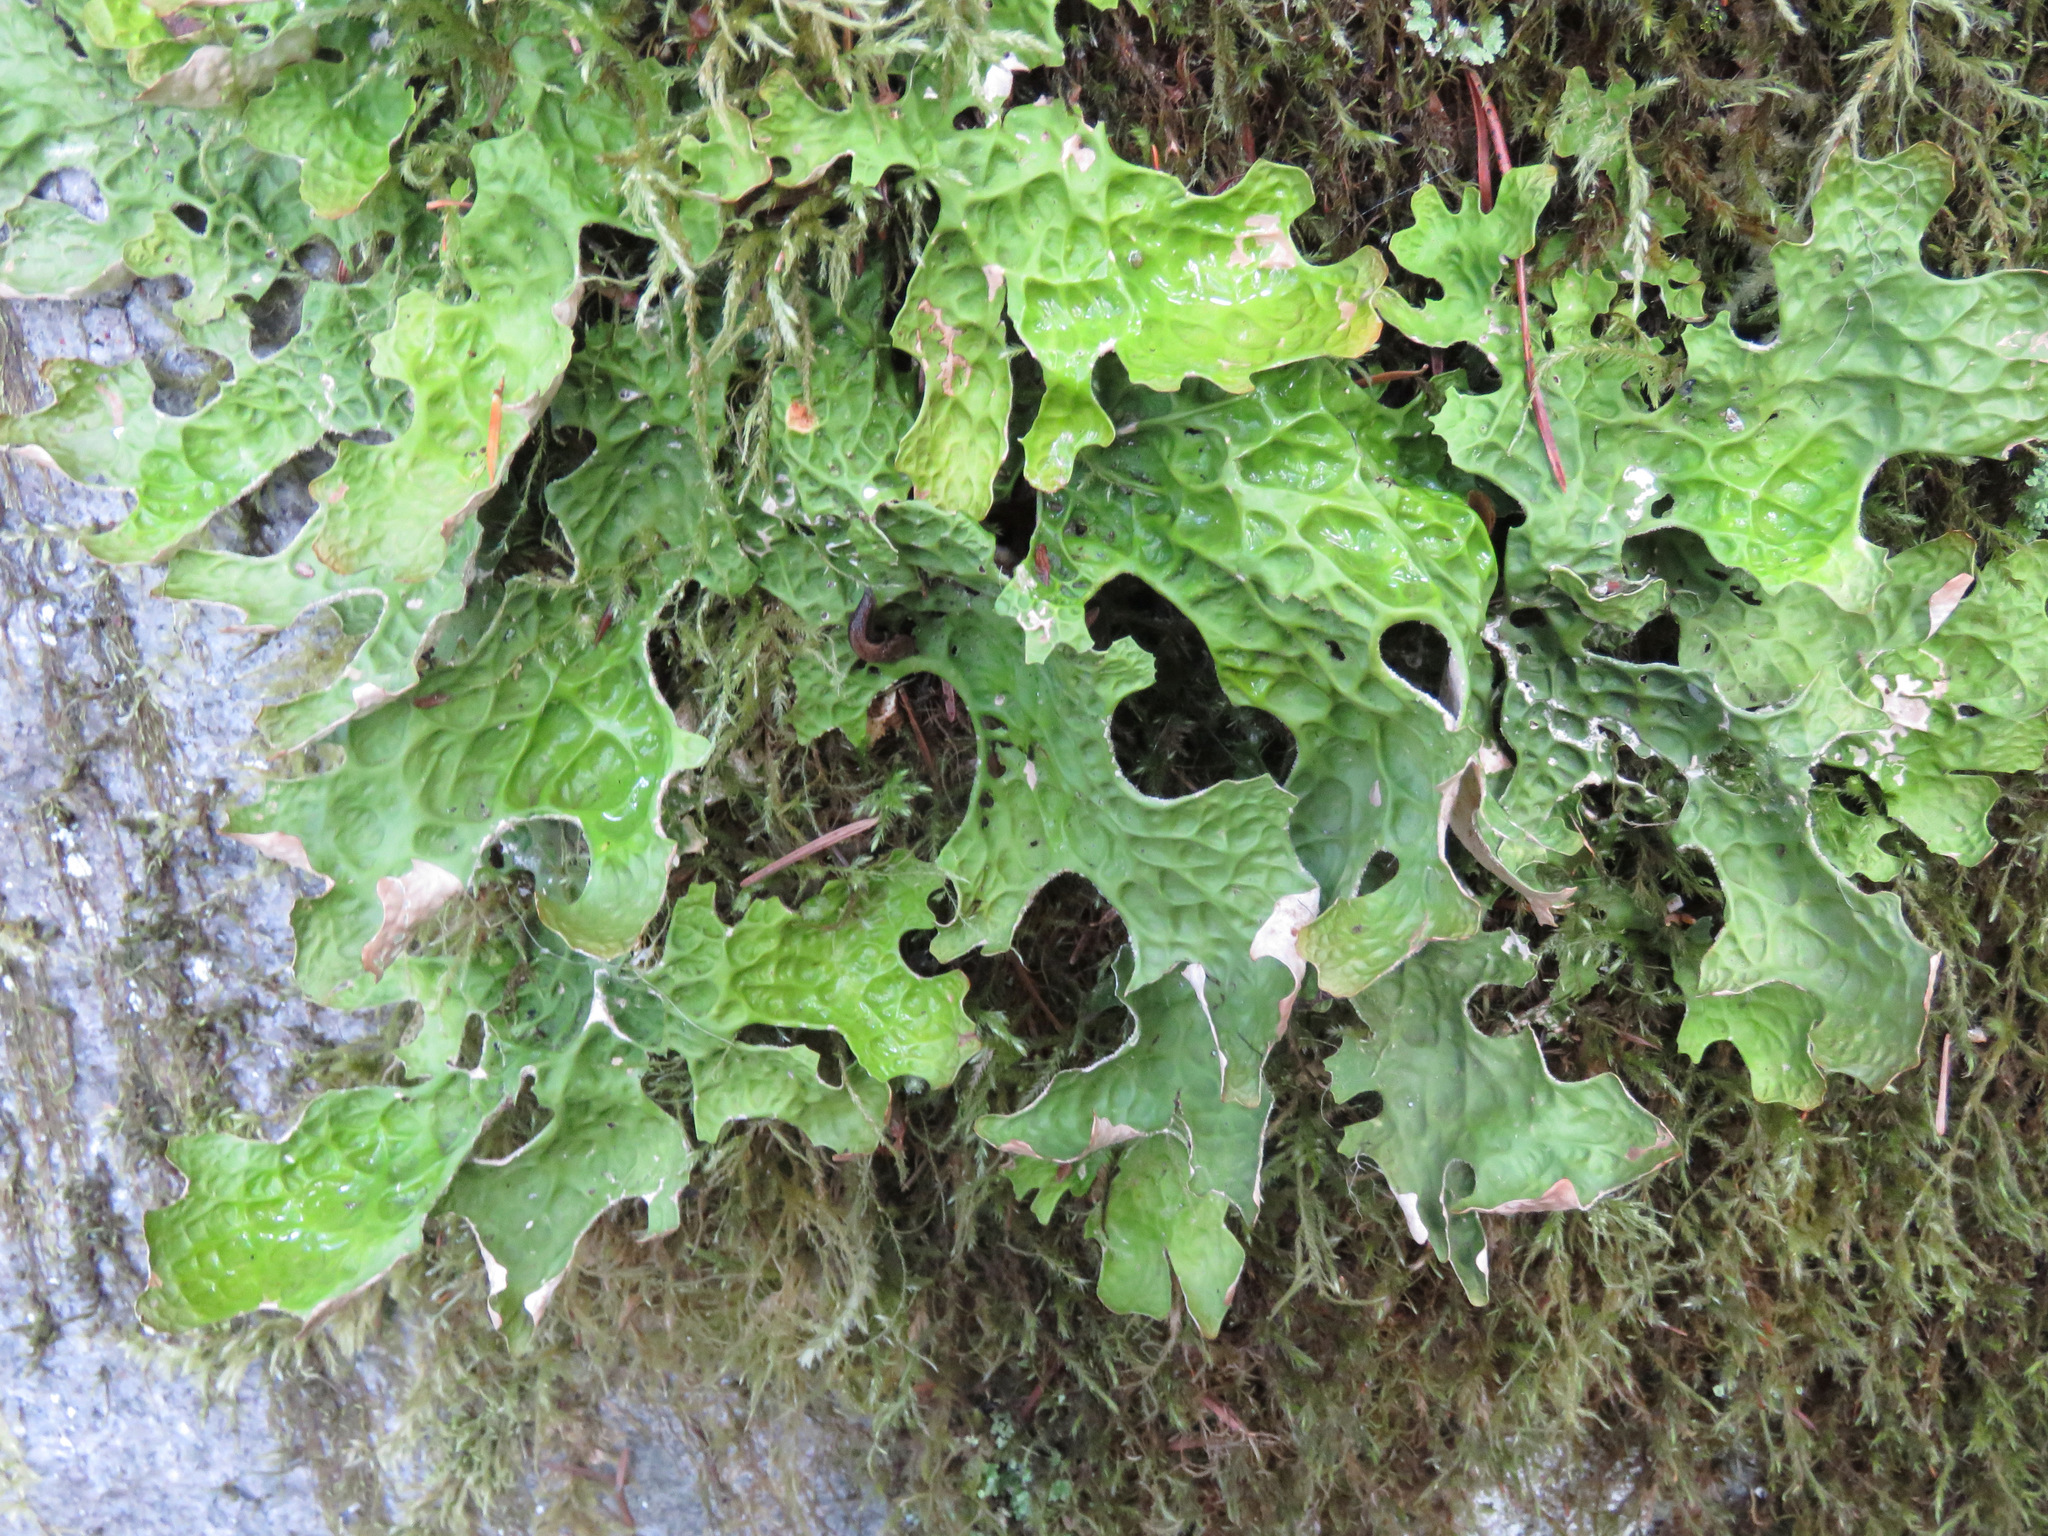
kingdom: Fungi
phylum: Ascomycota
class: Lecanoromycetes
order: Peltigerales
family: Lobariaceae
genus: Lobaria
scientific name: Lobaria pulmonaria
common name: Lungwort
